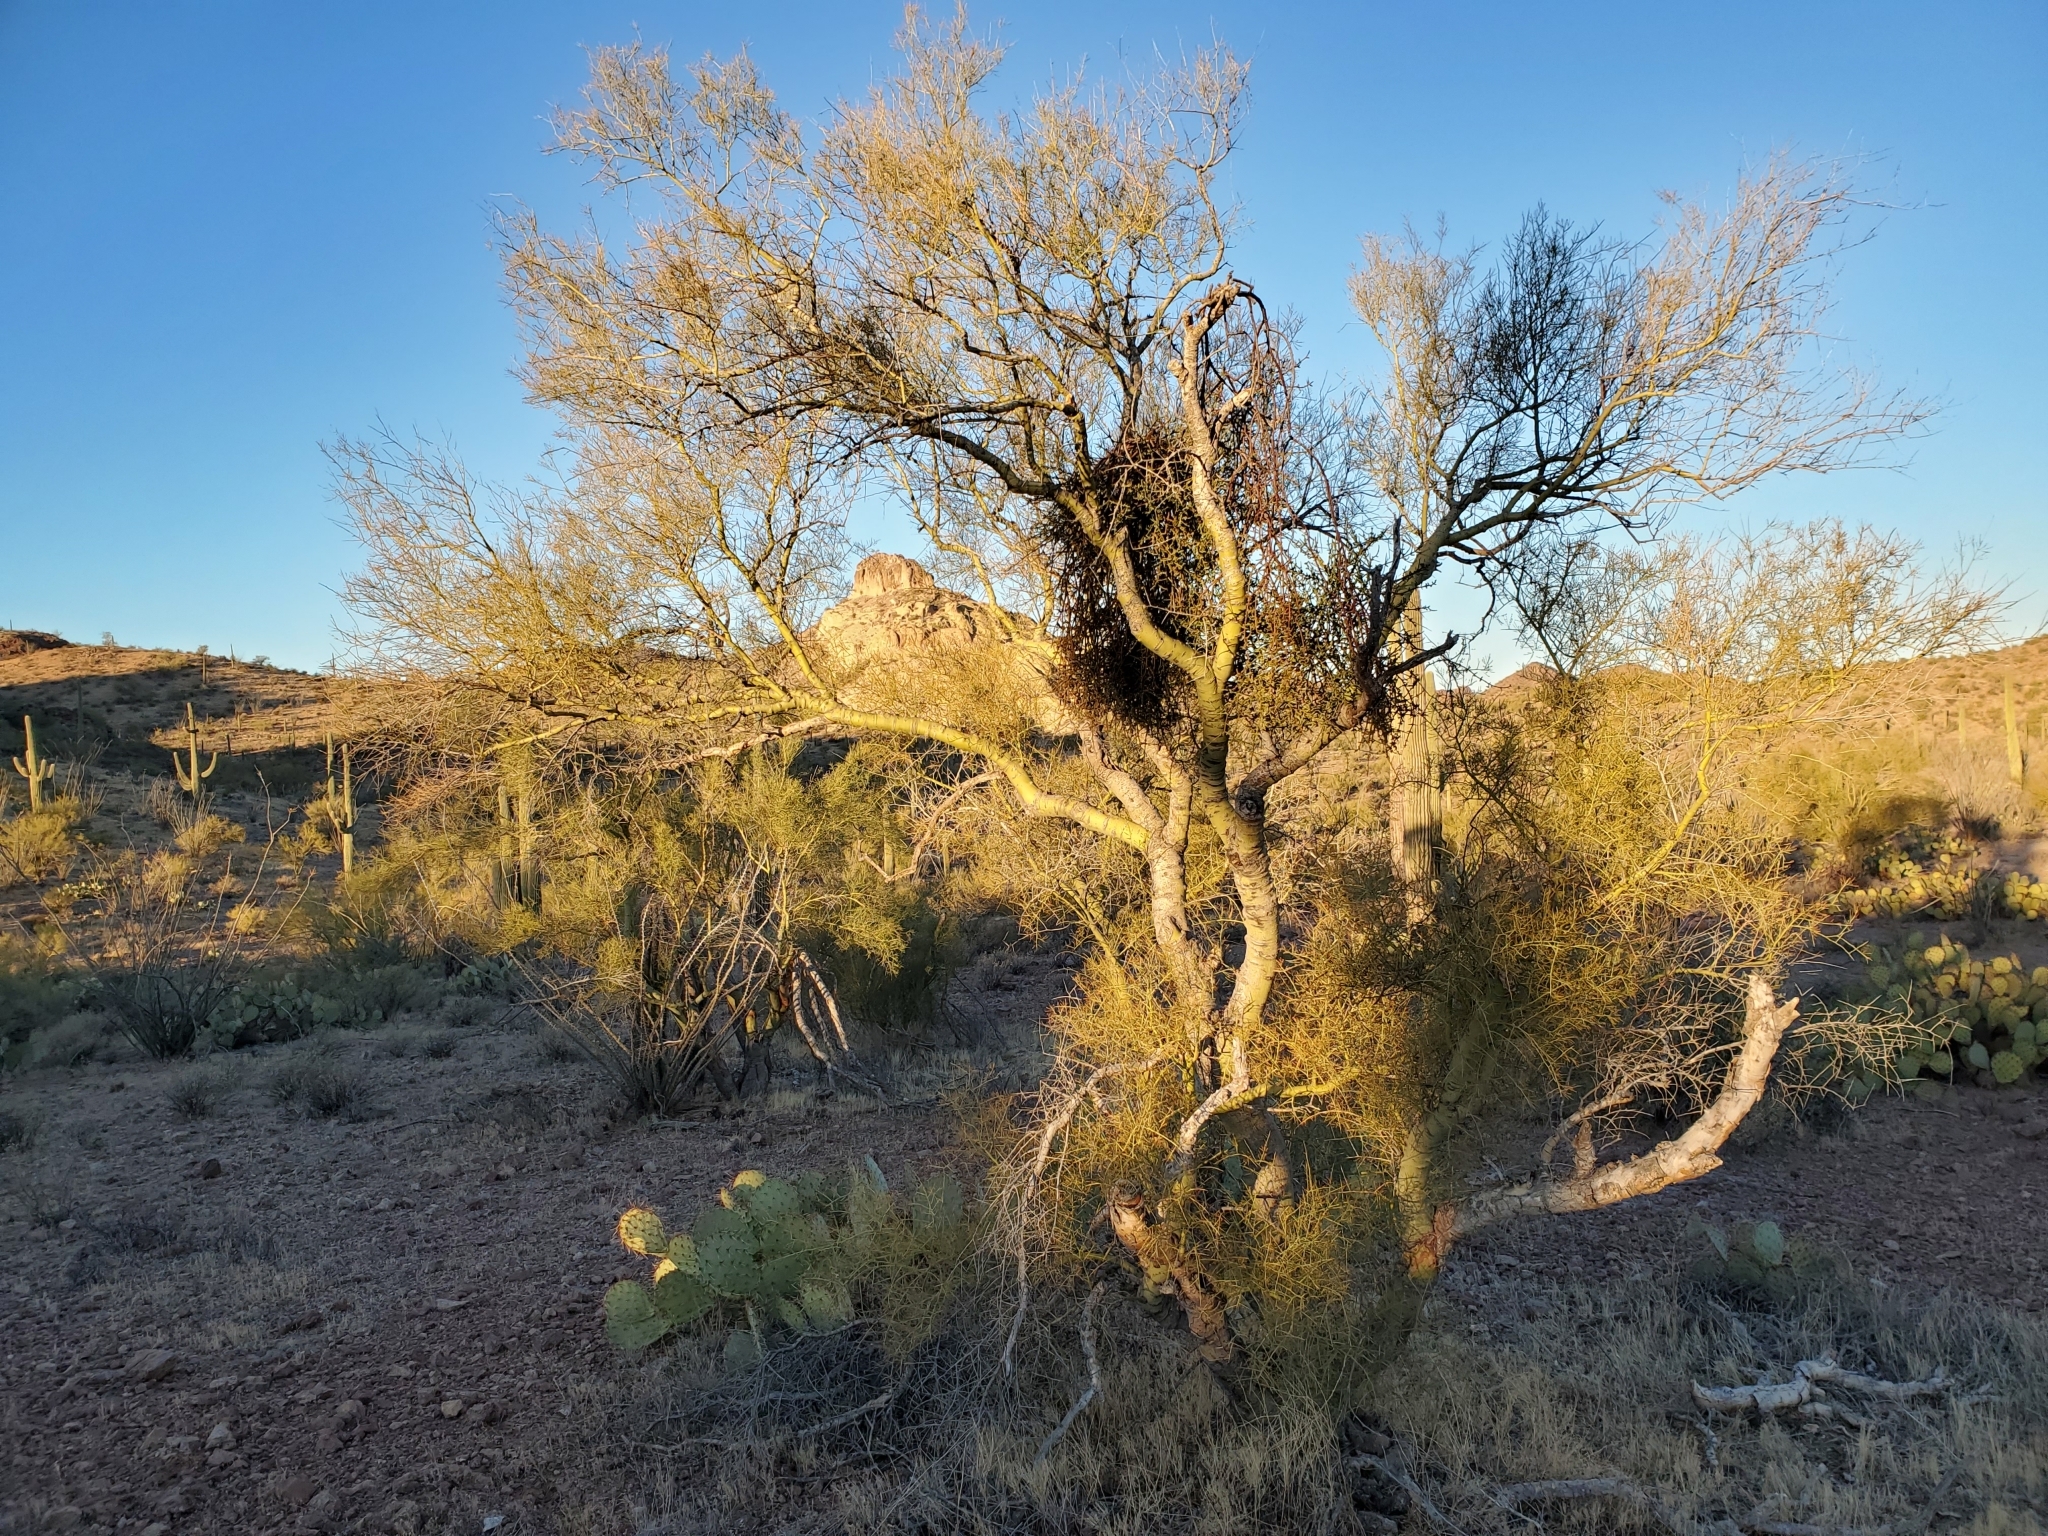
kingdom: Plantae
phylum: Tracheophyta
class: Magnoliopsida
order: Santalales
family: Viscaceae
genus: Phoradendron
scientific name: Phoradendron californicum
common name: Acacia mistletoe
